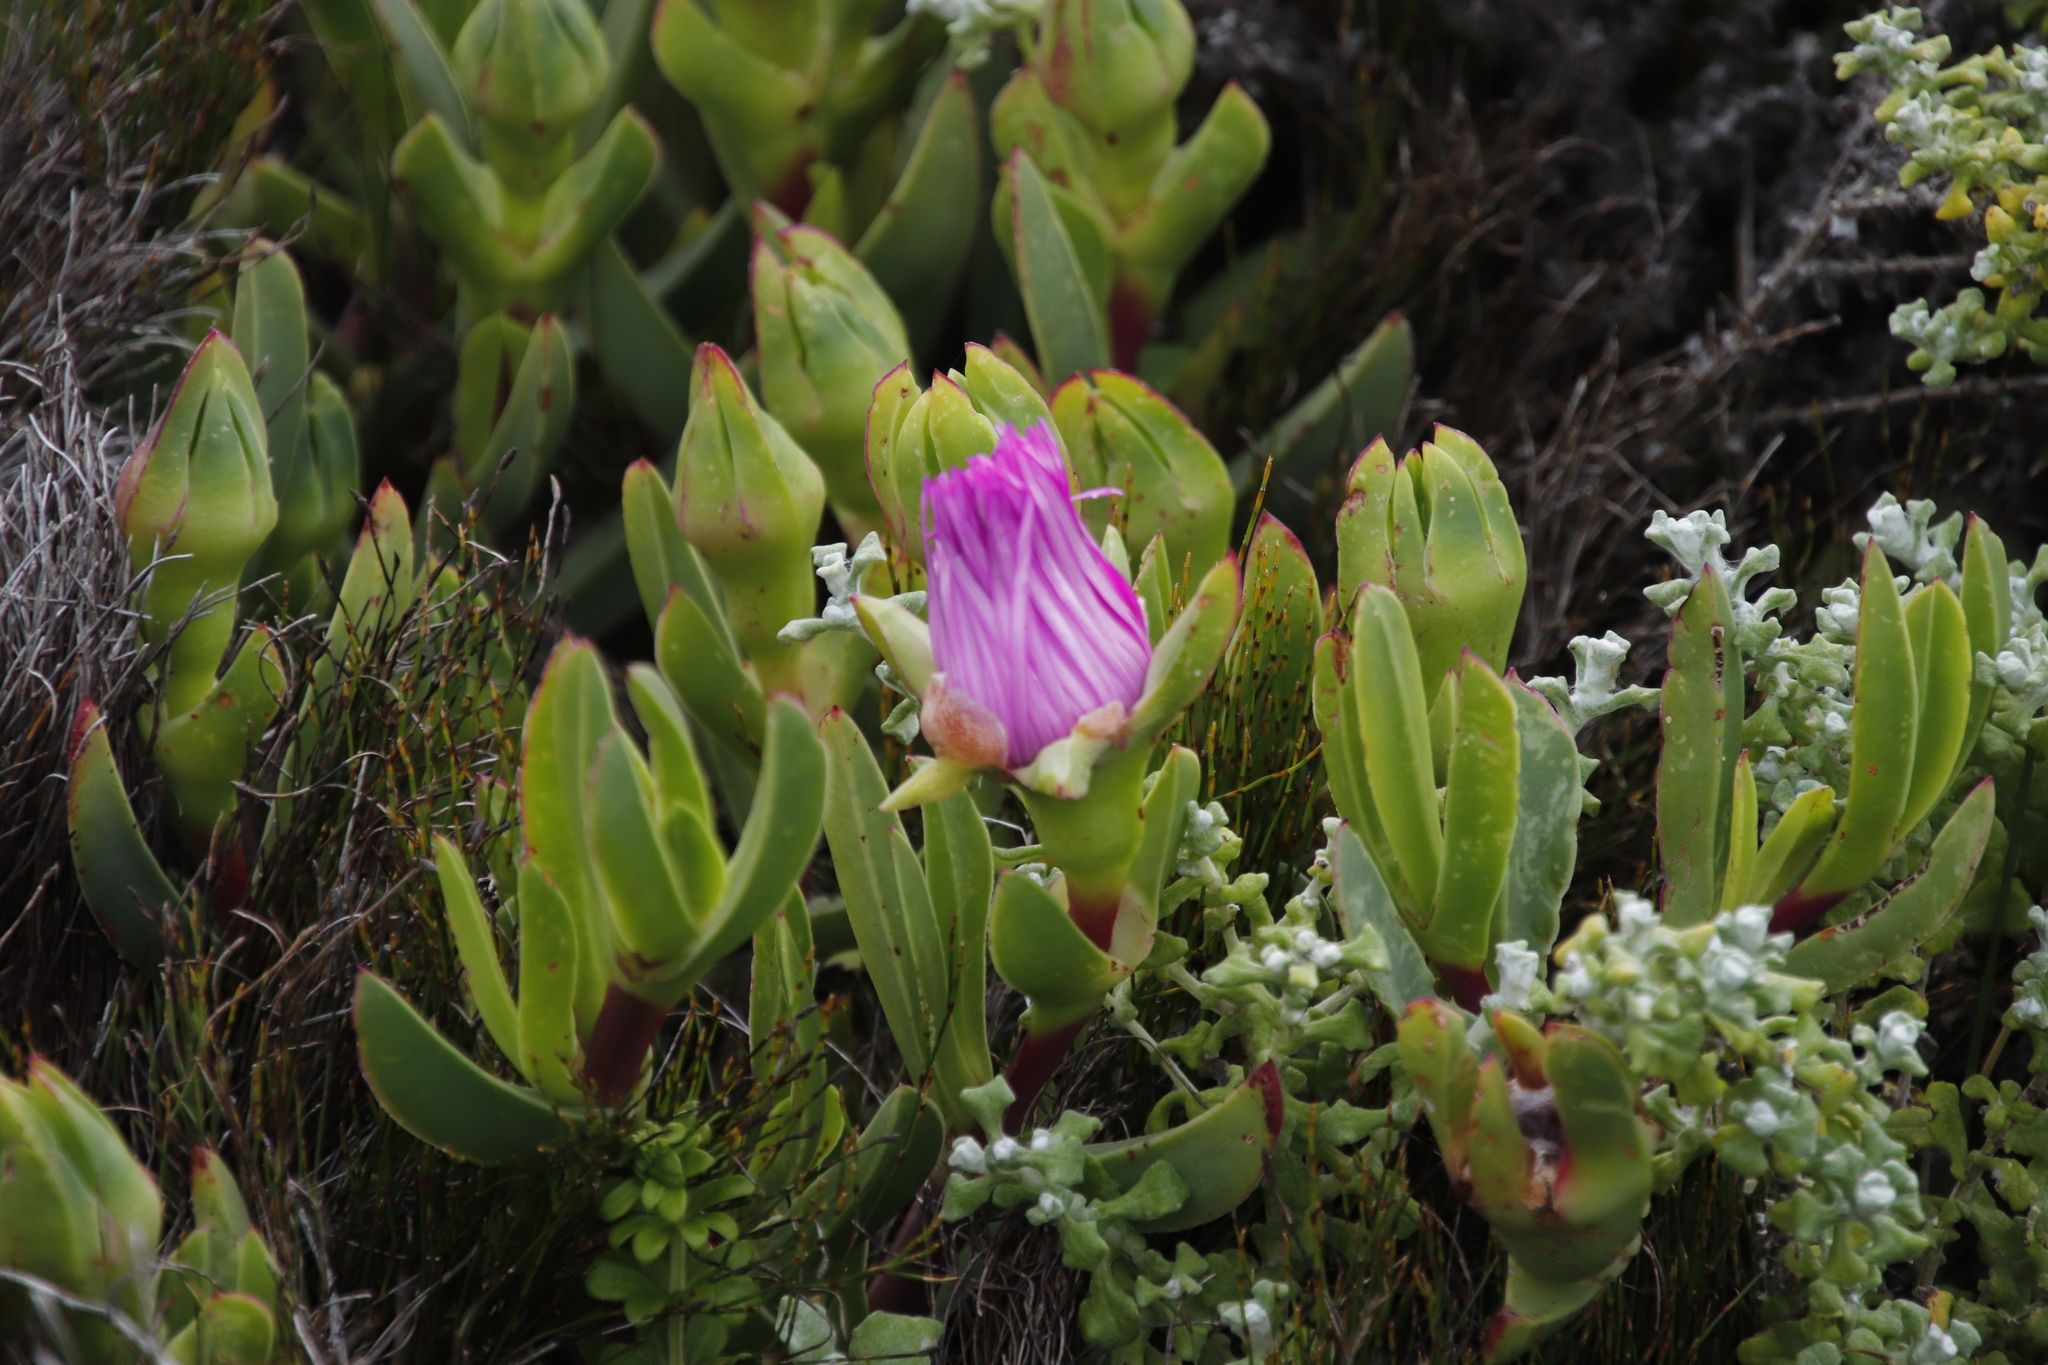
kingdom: Plantae
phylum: Tracheophyta
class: Magnoliopsida
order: Caryophyllales
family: Aizoaceae
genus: Carpobrotus
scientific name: Carpobrotus acinaciformis
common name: Sally-my-handsome
